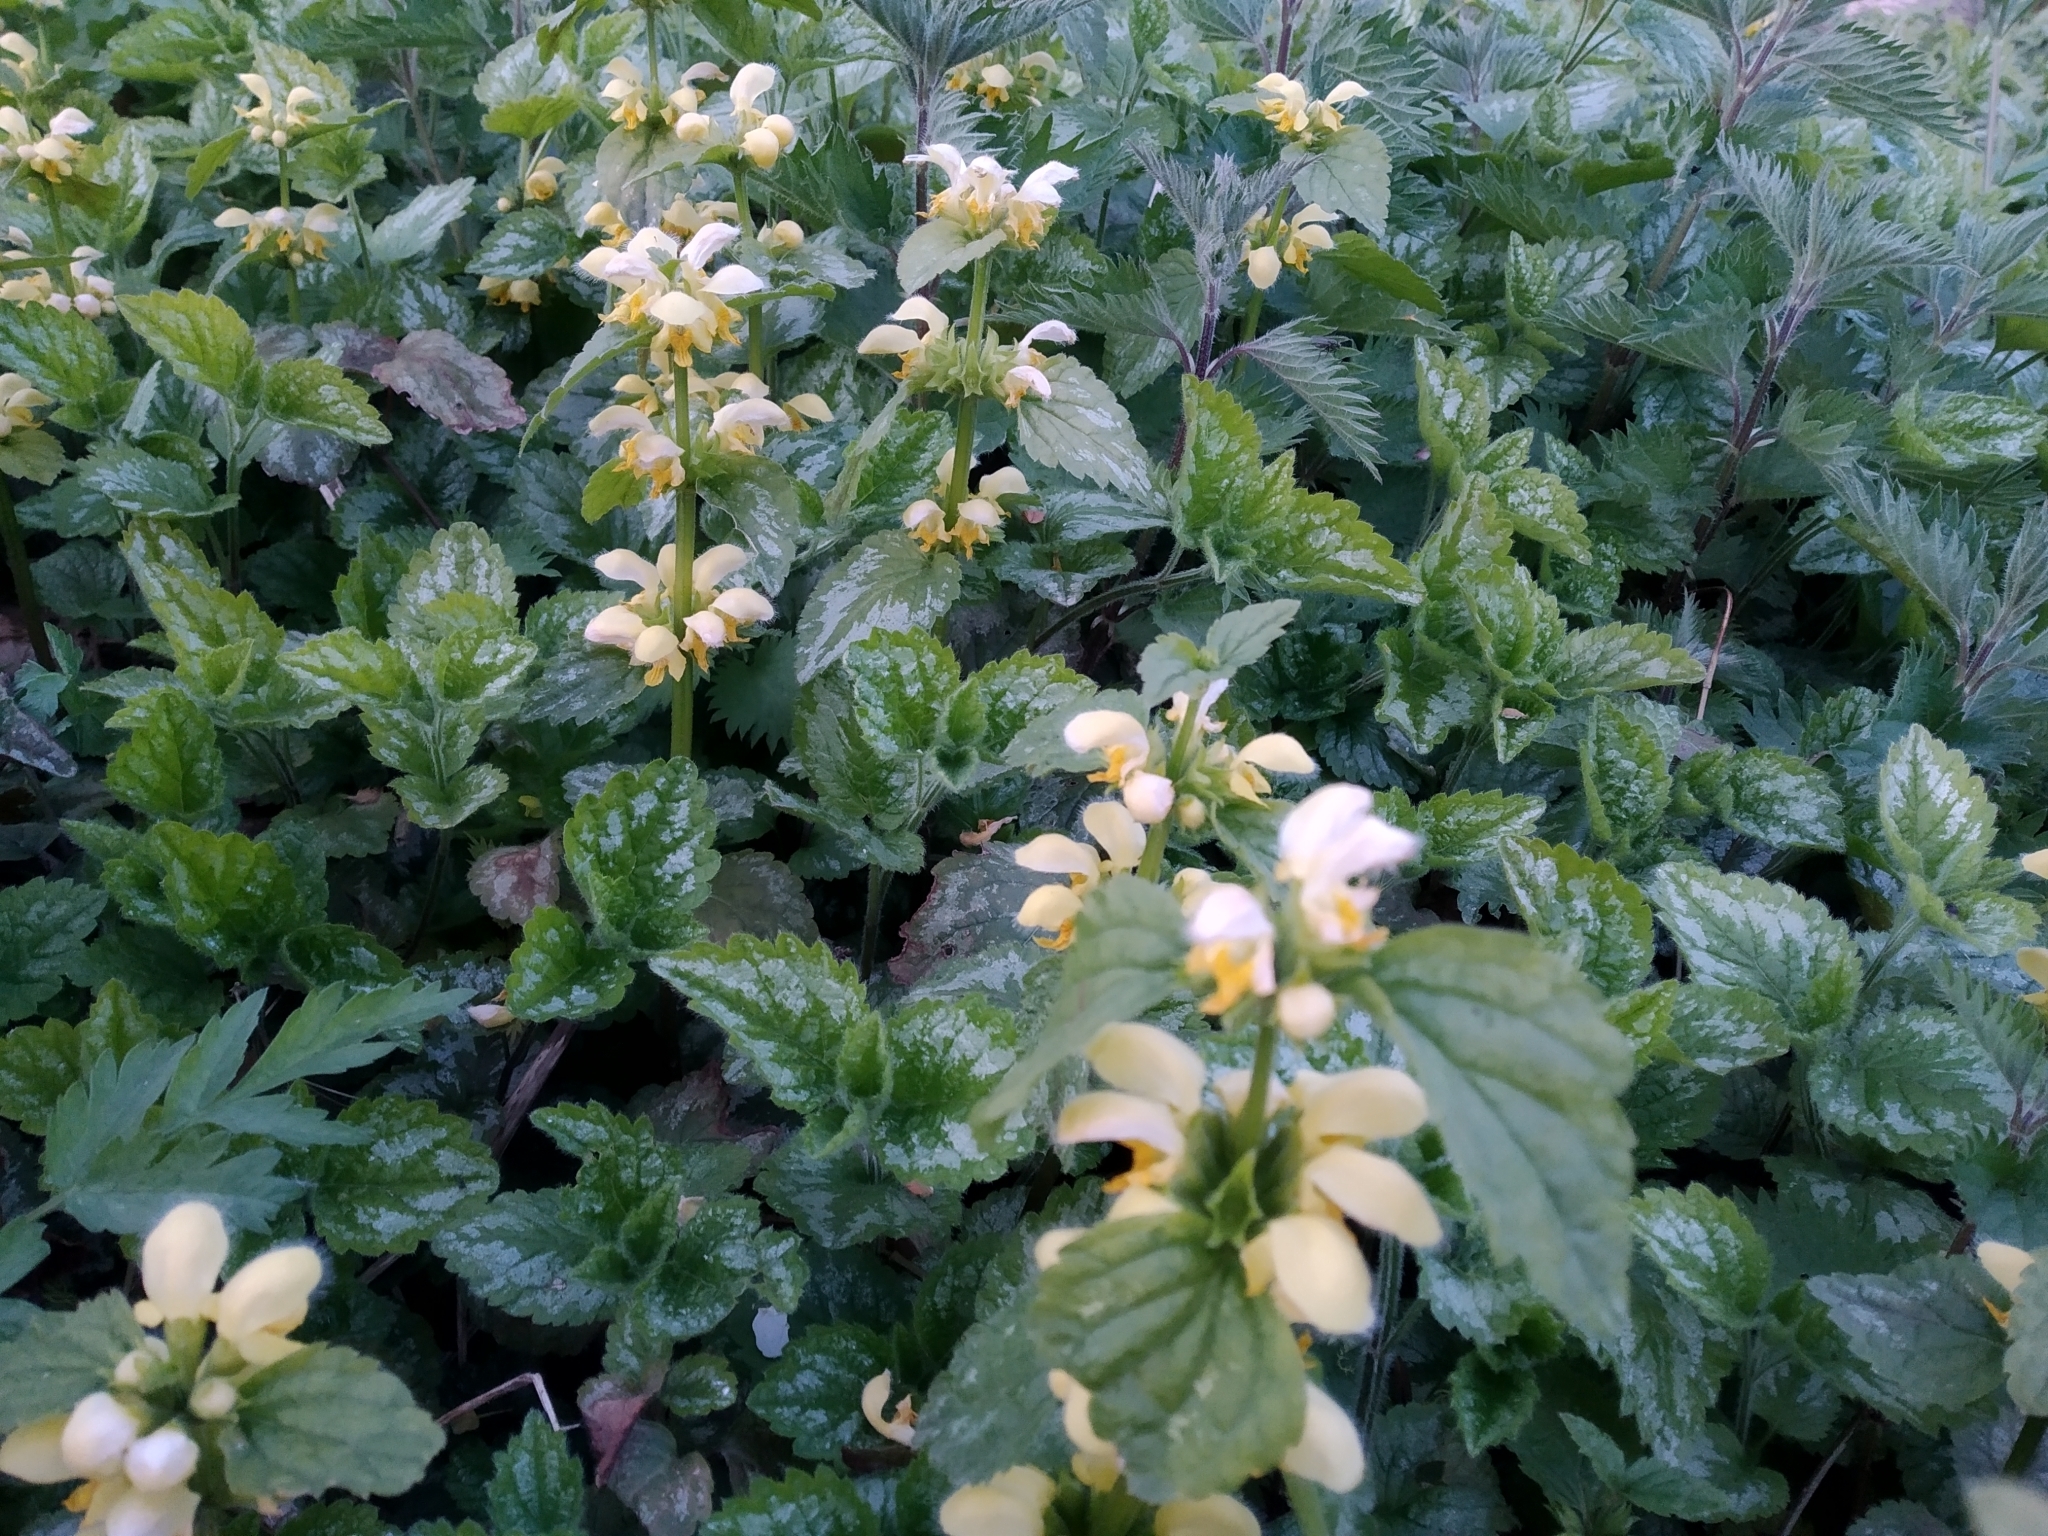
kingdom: Plantae
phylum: Tracheophyta
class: Magnoliopsida
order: Lamiales
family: Lamiaceae
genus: Lamium
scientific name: Lamium galeobdolon
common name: Yellow archangel
